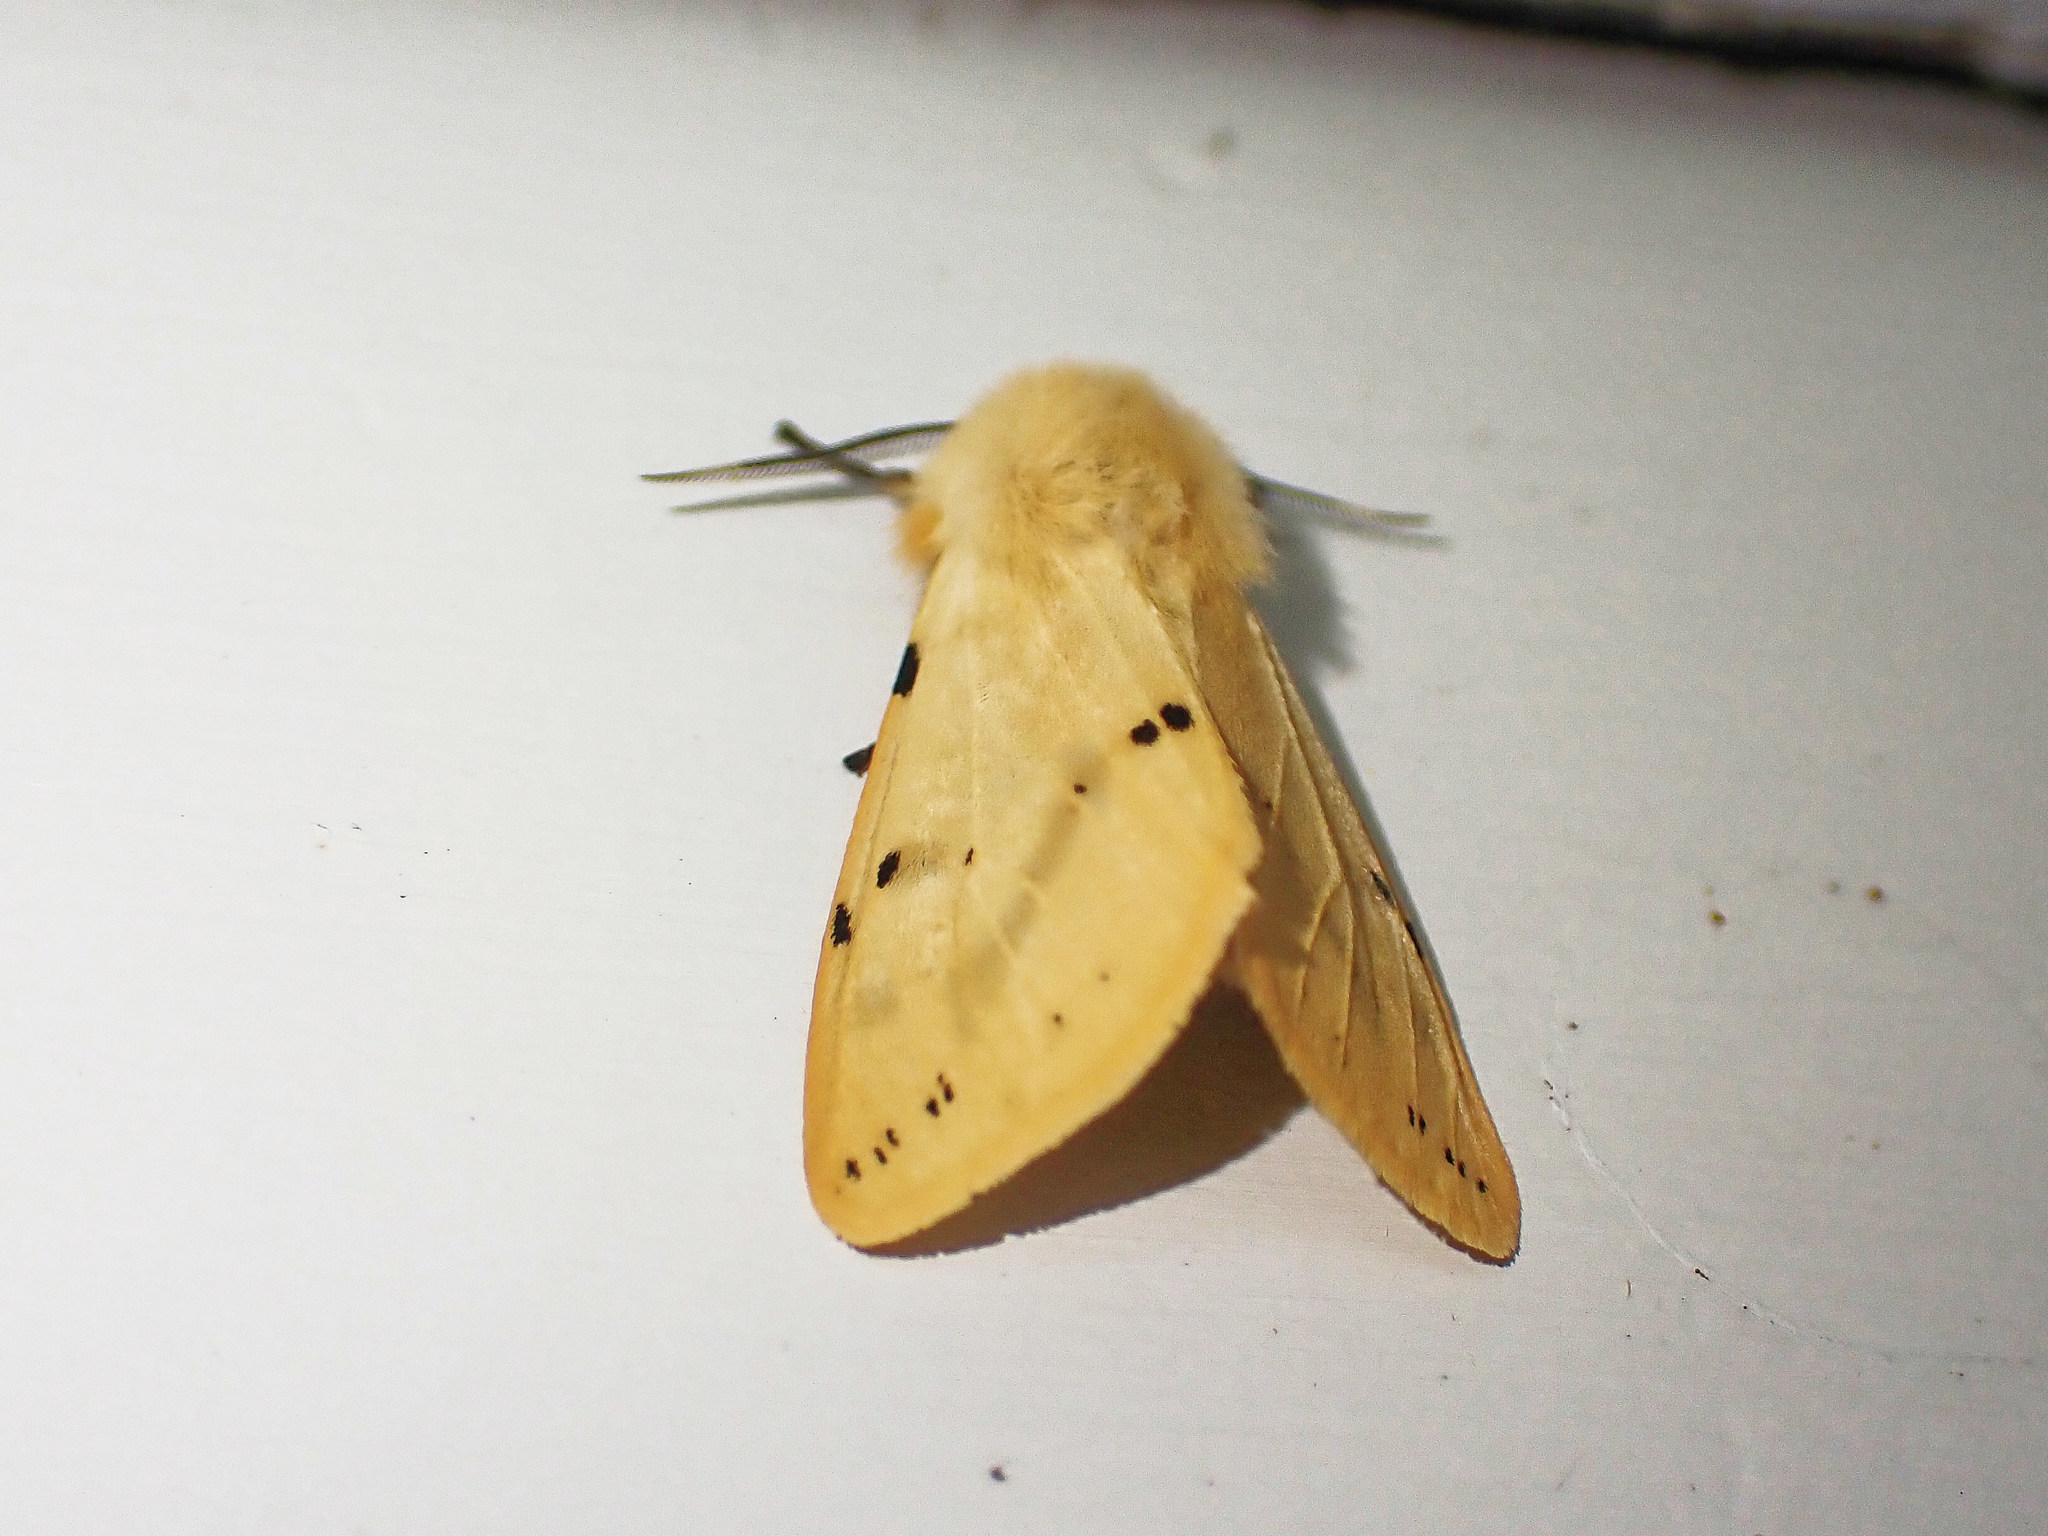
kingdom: Animalia
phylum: Arthropoda
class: Insecta
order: Lepidoptera
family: Erebidae
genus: Spilarctia
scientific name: Spilarctia lutea
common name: Buff ermine
